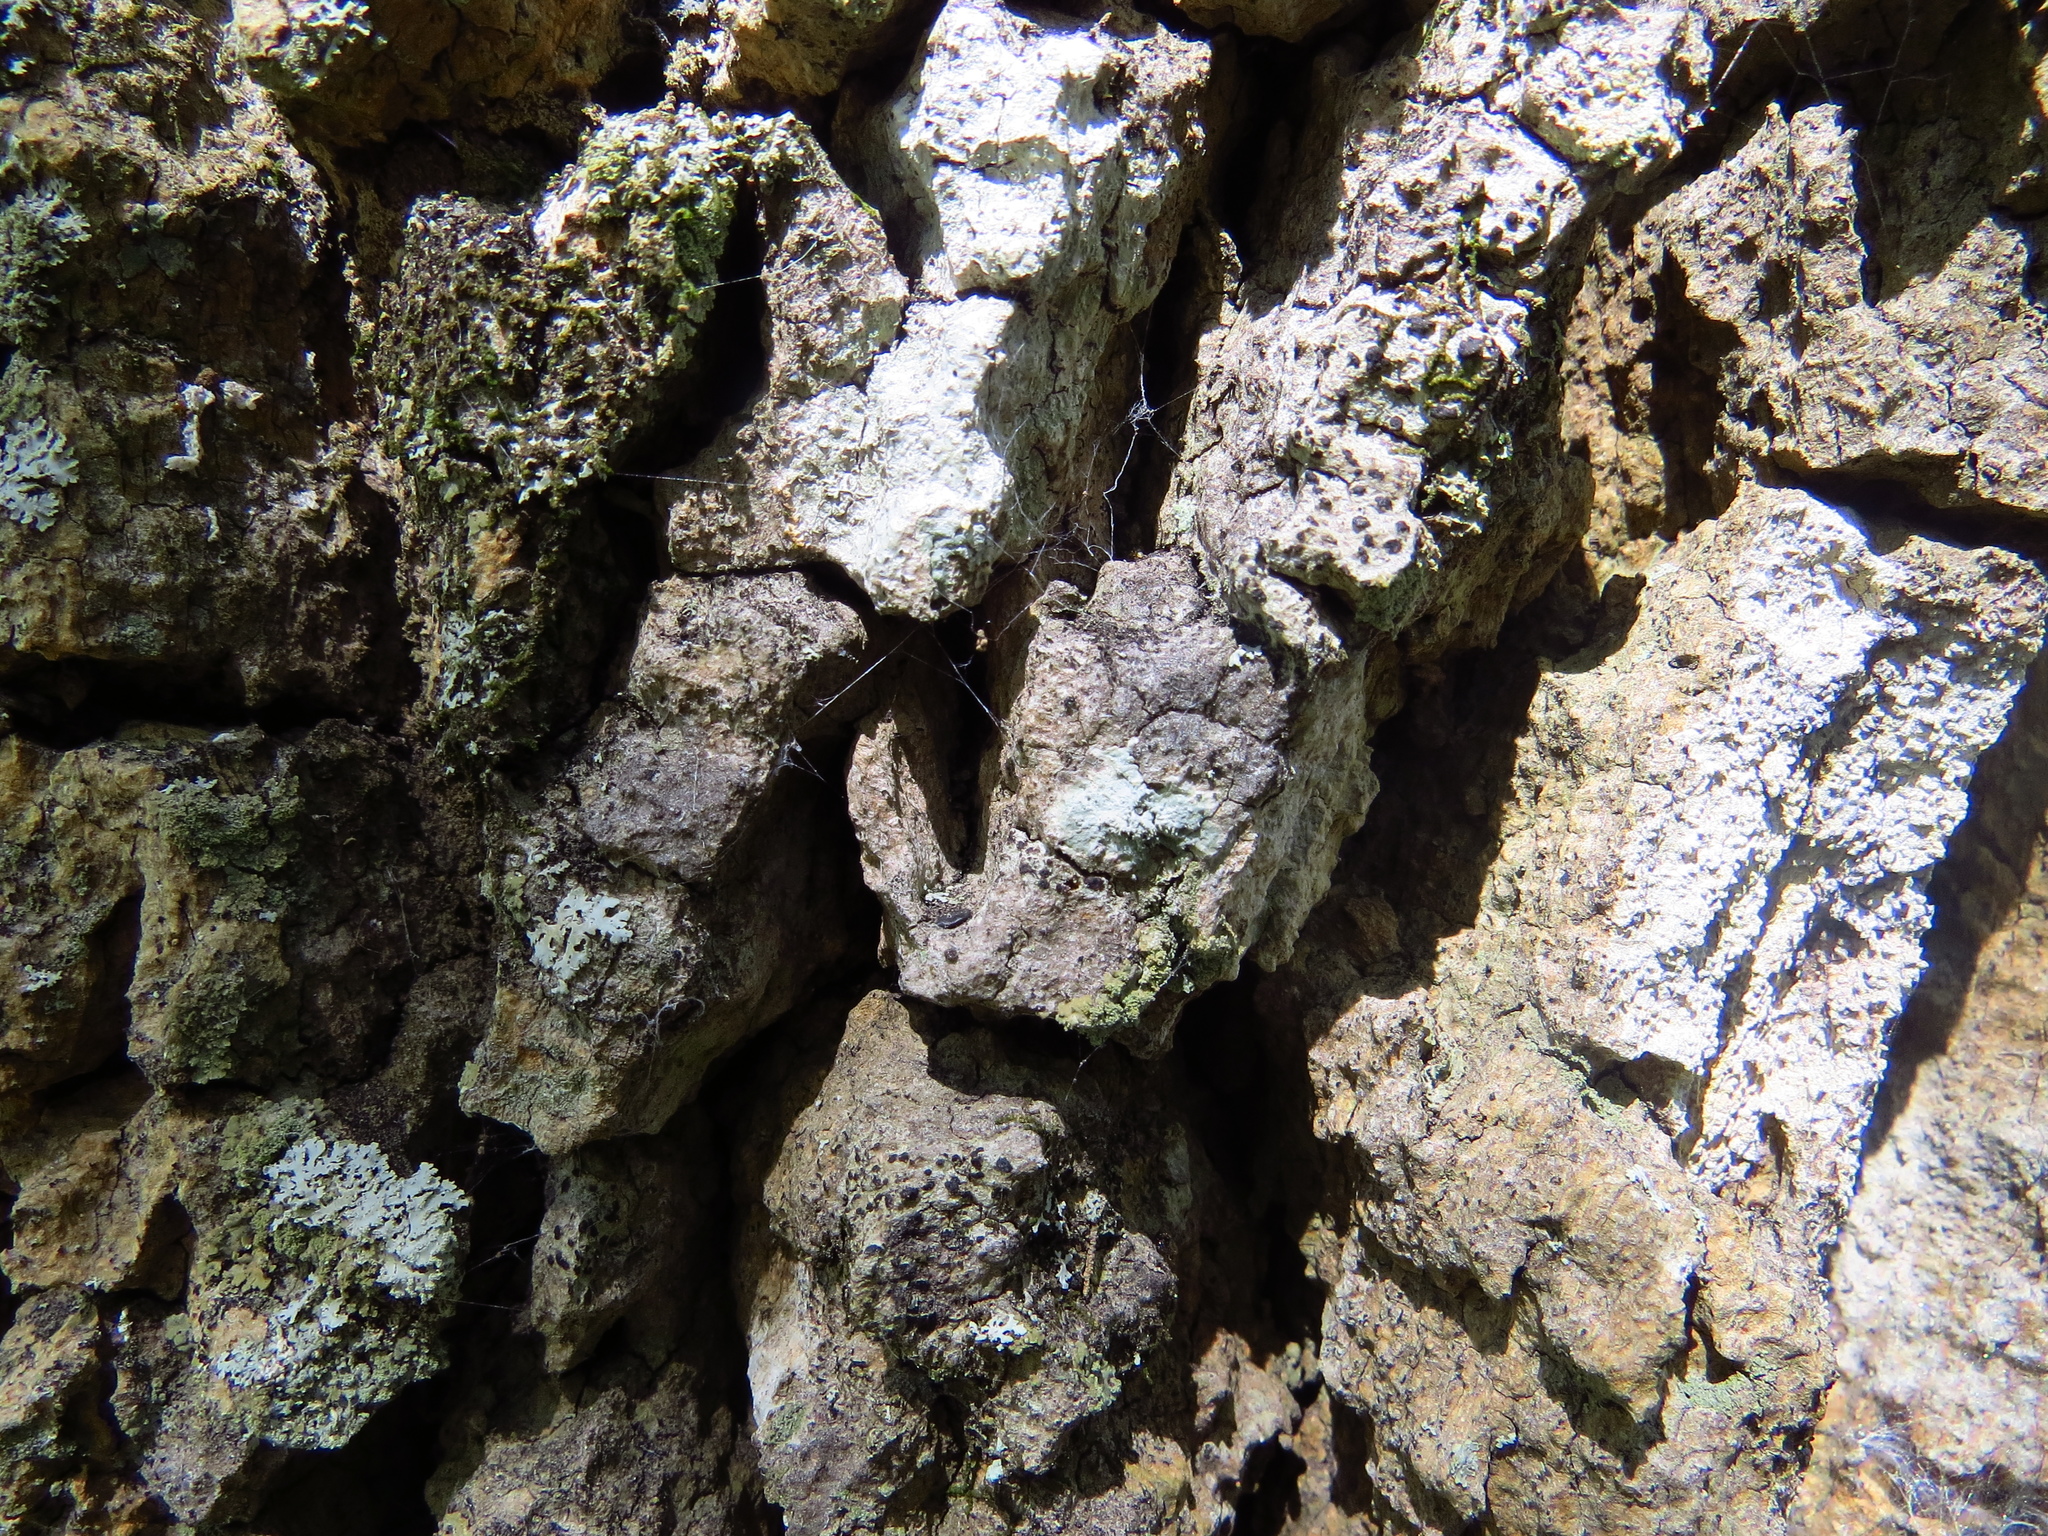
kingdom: Plantae
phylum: Tracheophyta
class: Magnoliopsida
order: Sapindales
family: Anacardiaceae
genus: Schinopsis
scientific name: Schinopsis balansae
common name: Red quebracho
